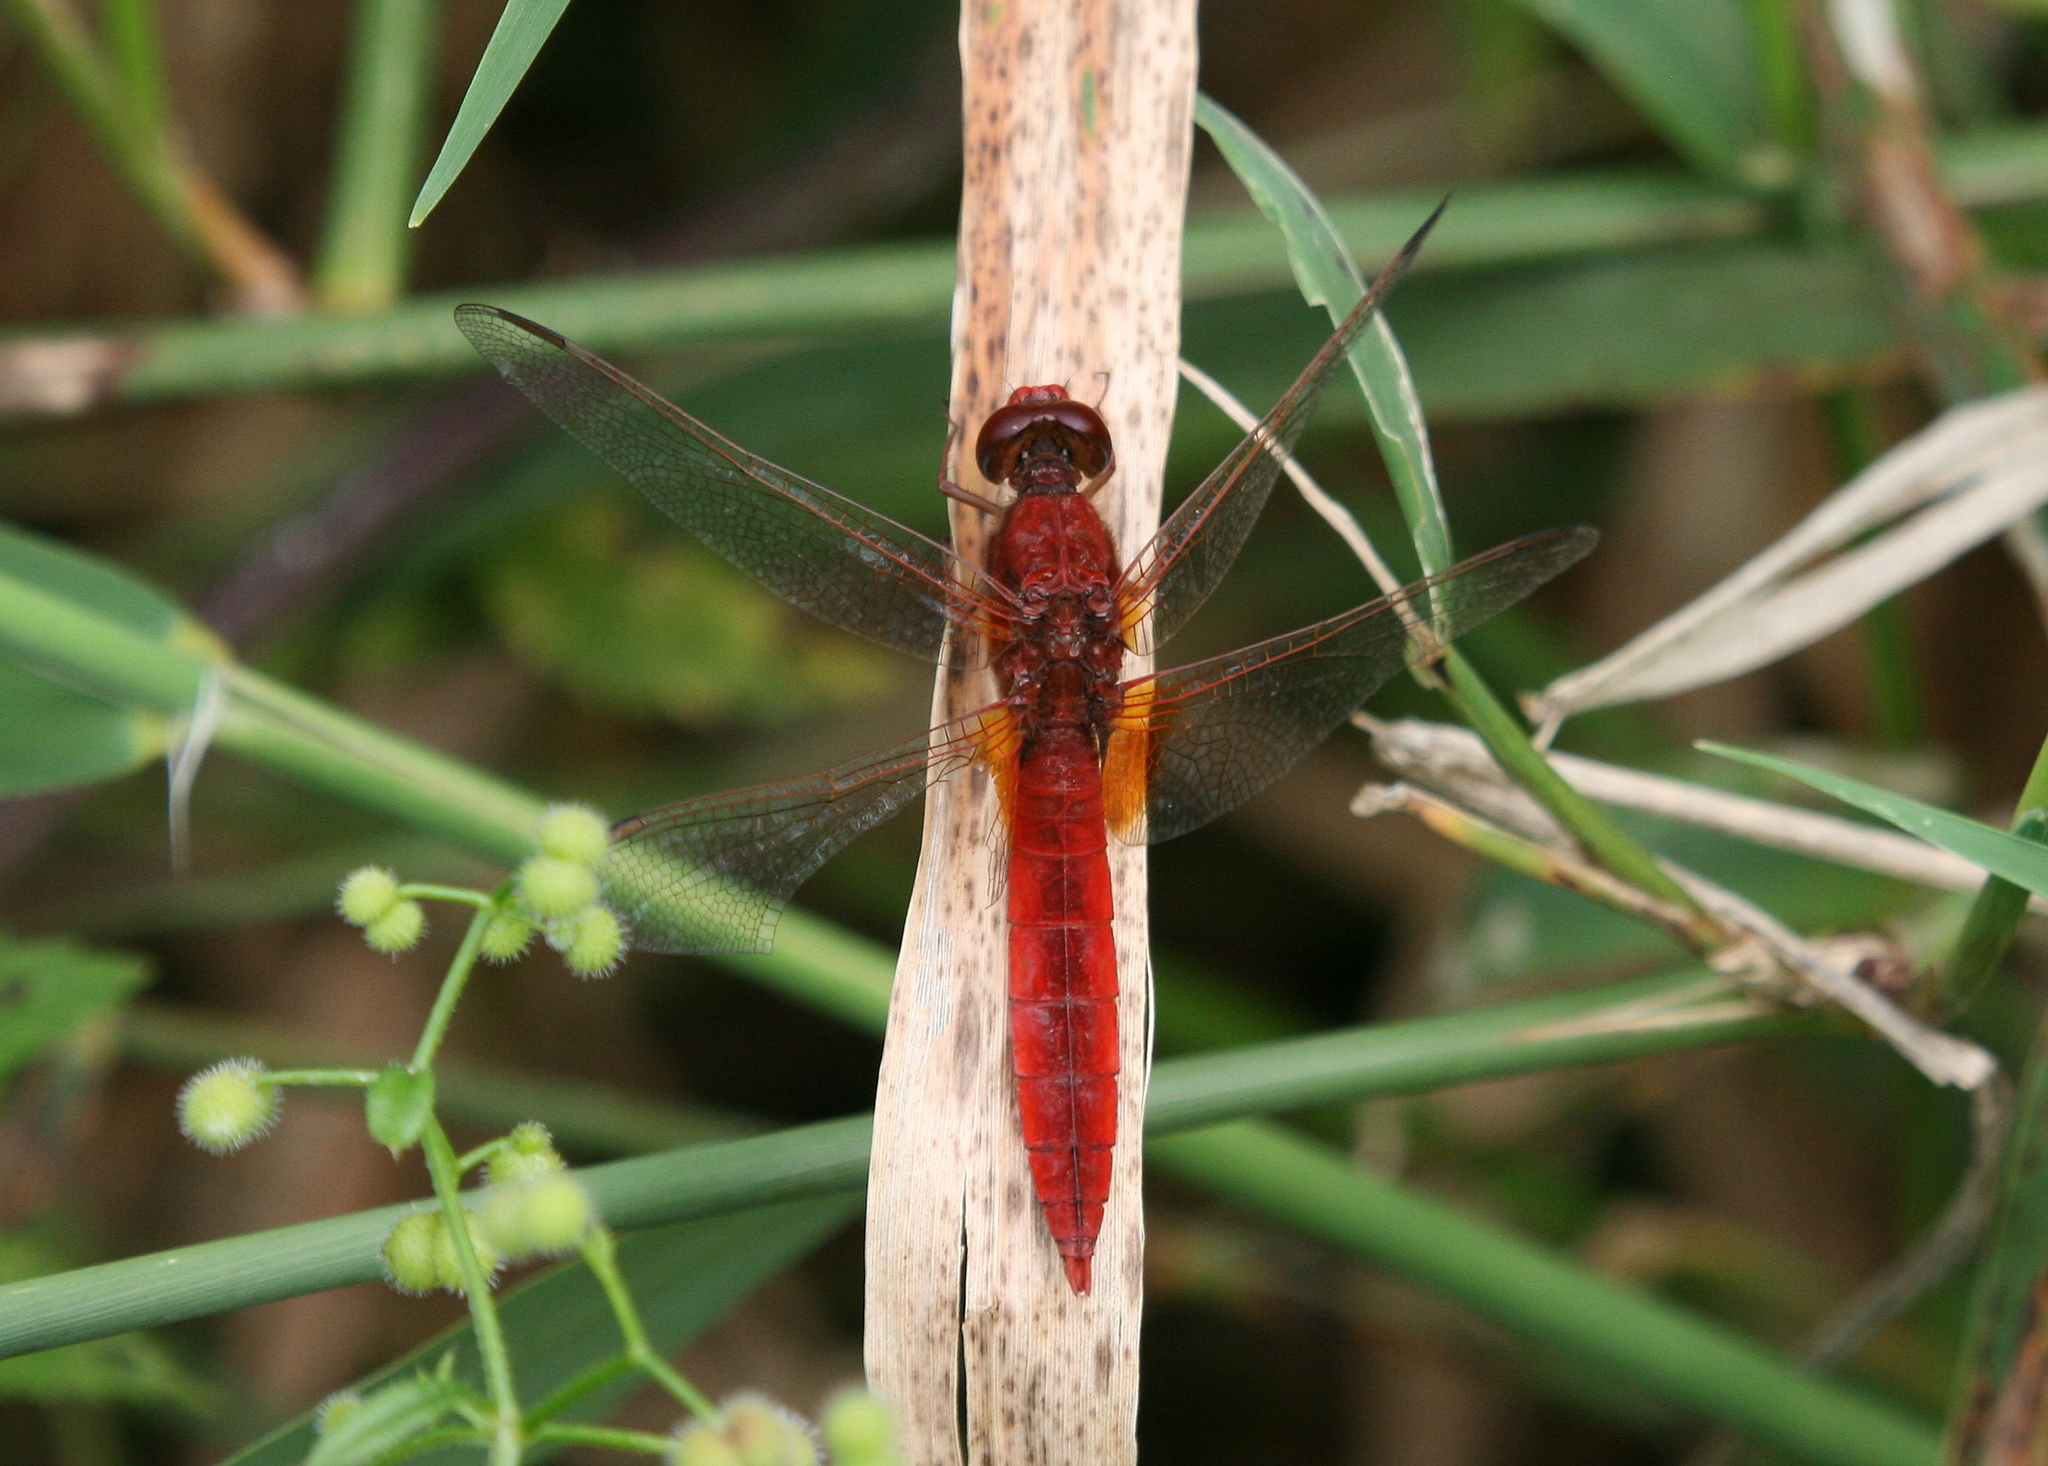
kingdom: Animalia
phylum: Arthropoda
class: Insecta
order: Odonata
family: Libellulidae
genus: Crocothemis
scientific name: Crocothemis erythraea
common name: Scarlet dragonfly
